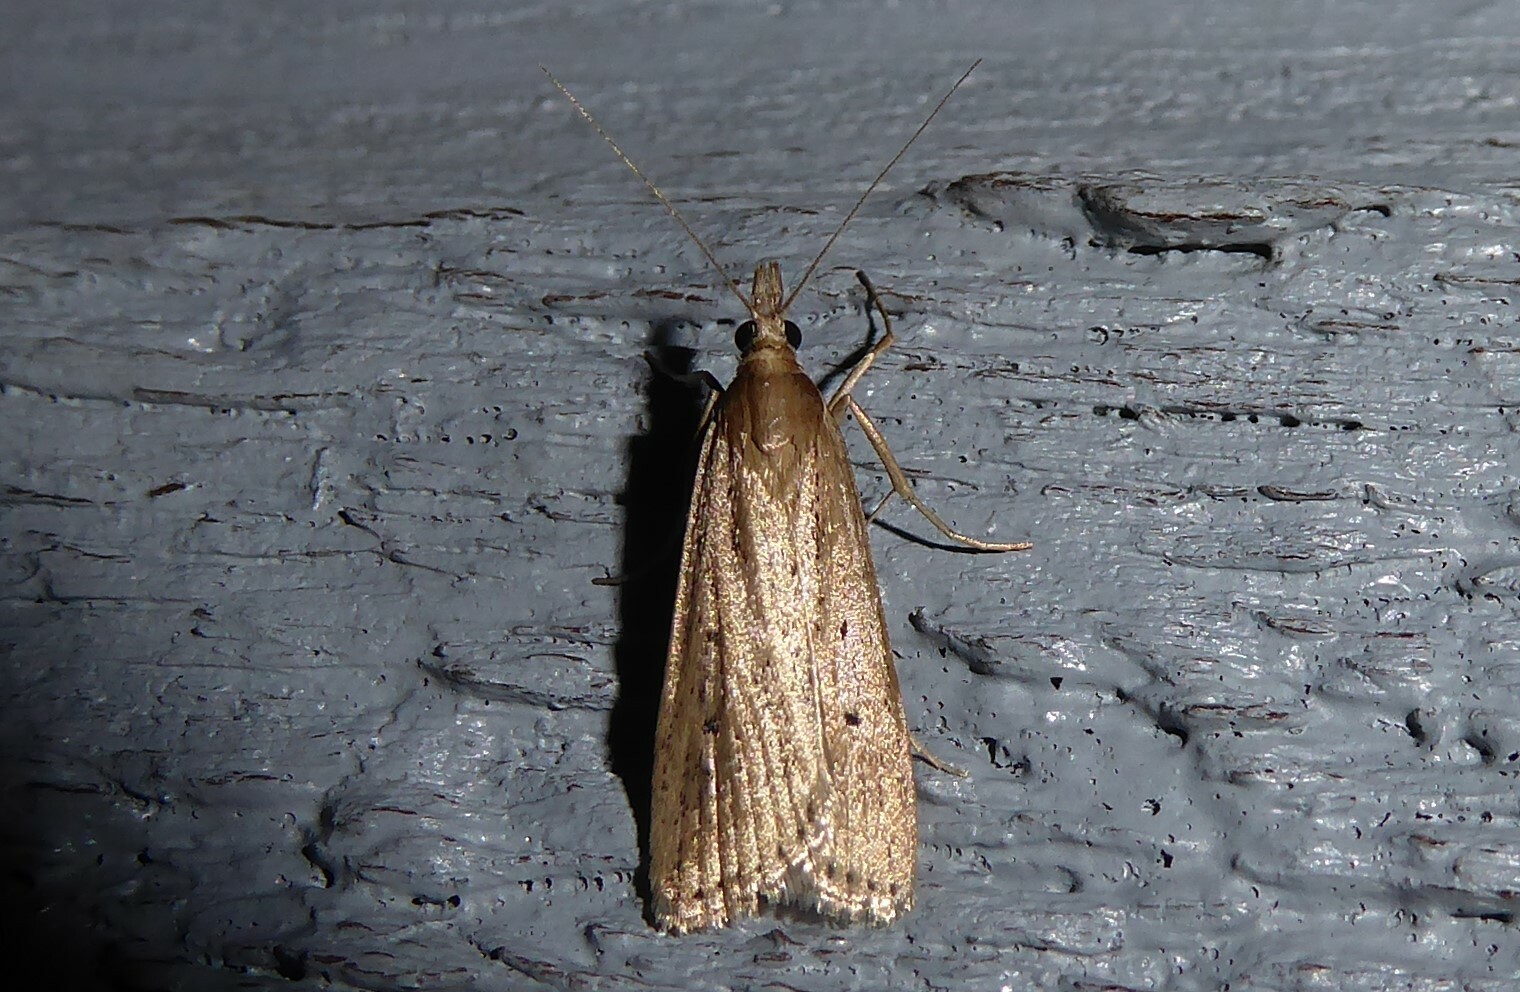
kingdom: Animalia
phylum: Arthropoda
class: Insecta
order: Lepidoptera
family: Crambidae
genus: Eudonia
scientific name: Eudonia sabulosella
